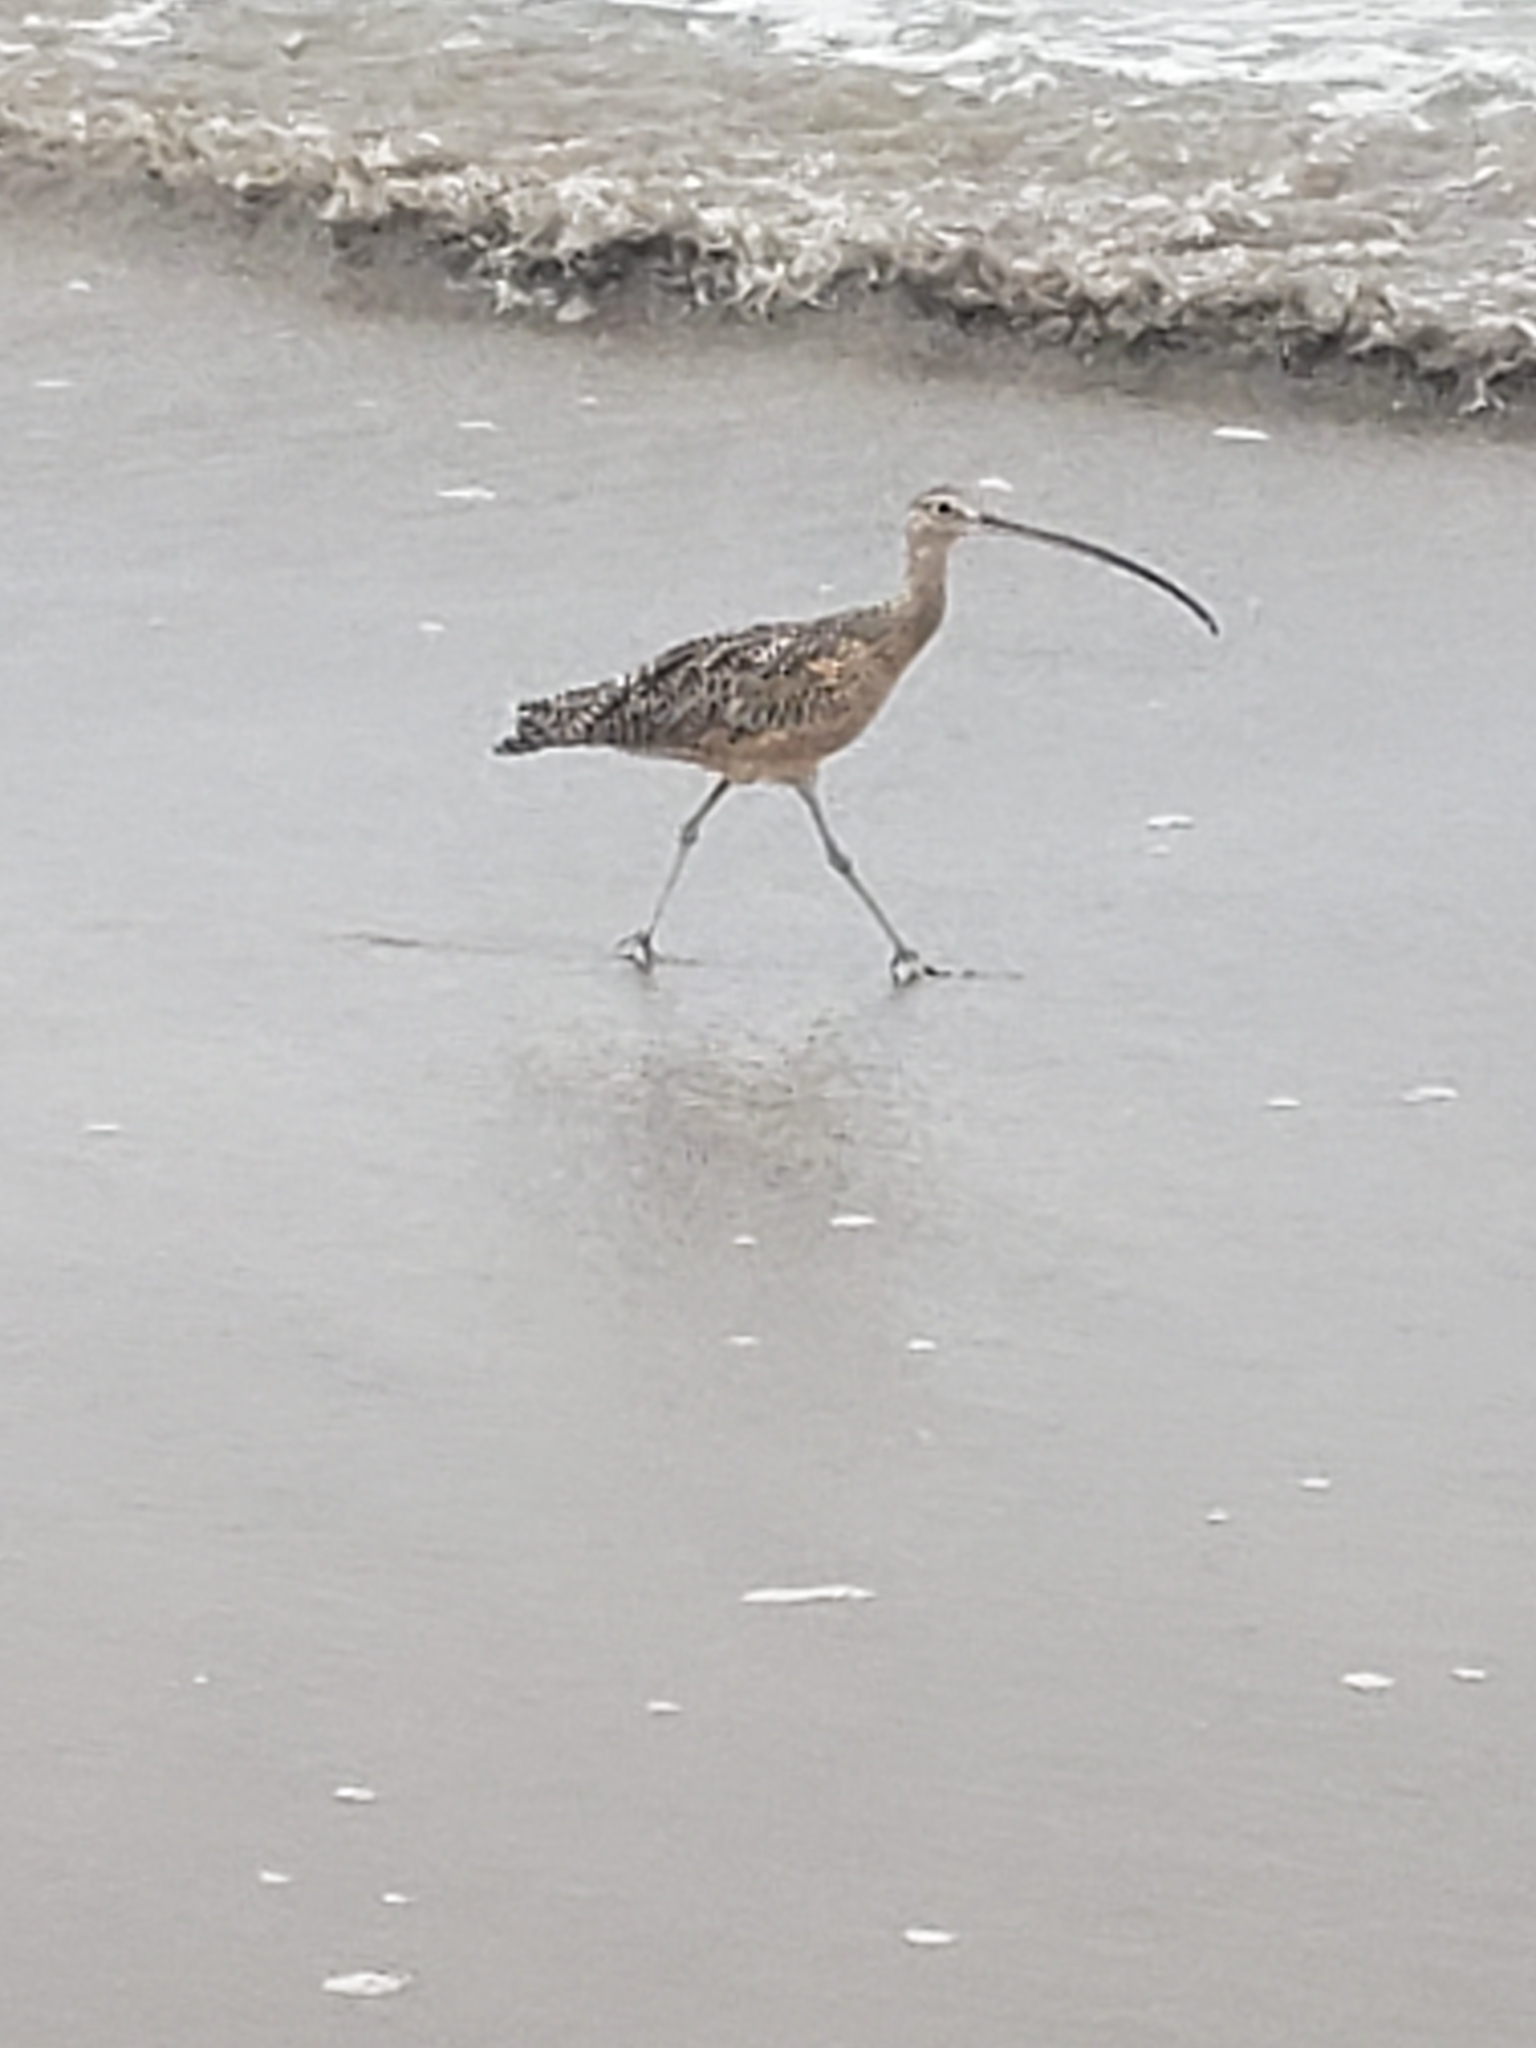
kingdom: Animalia
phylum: Chordata
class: Aves
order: Charadriiformes
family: Scolopacidae
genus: Numenius
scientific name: Numenius americanus
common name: Long-billed curlew
